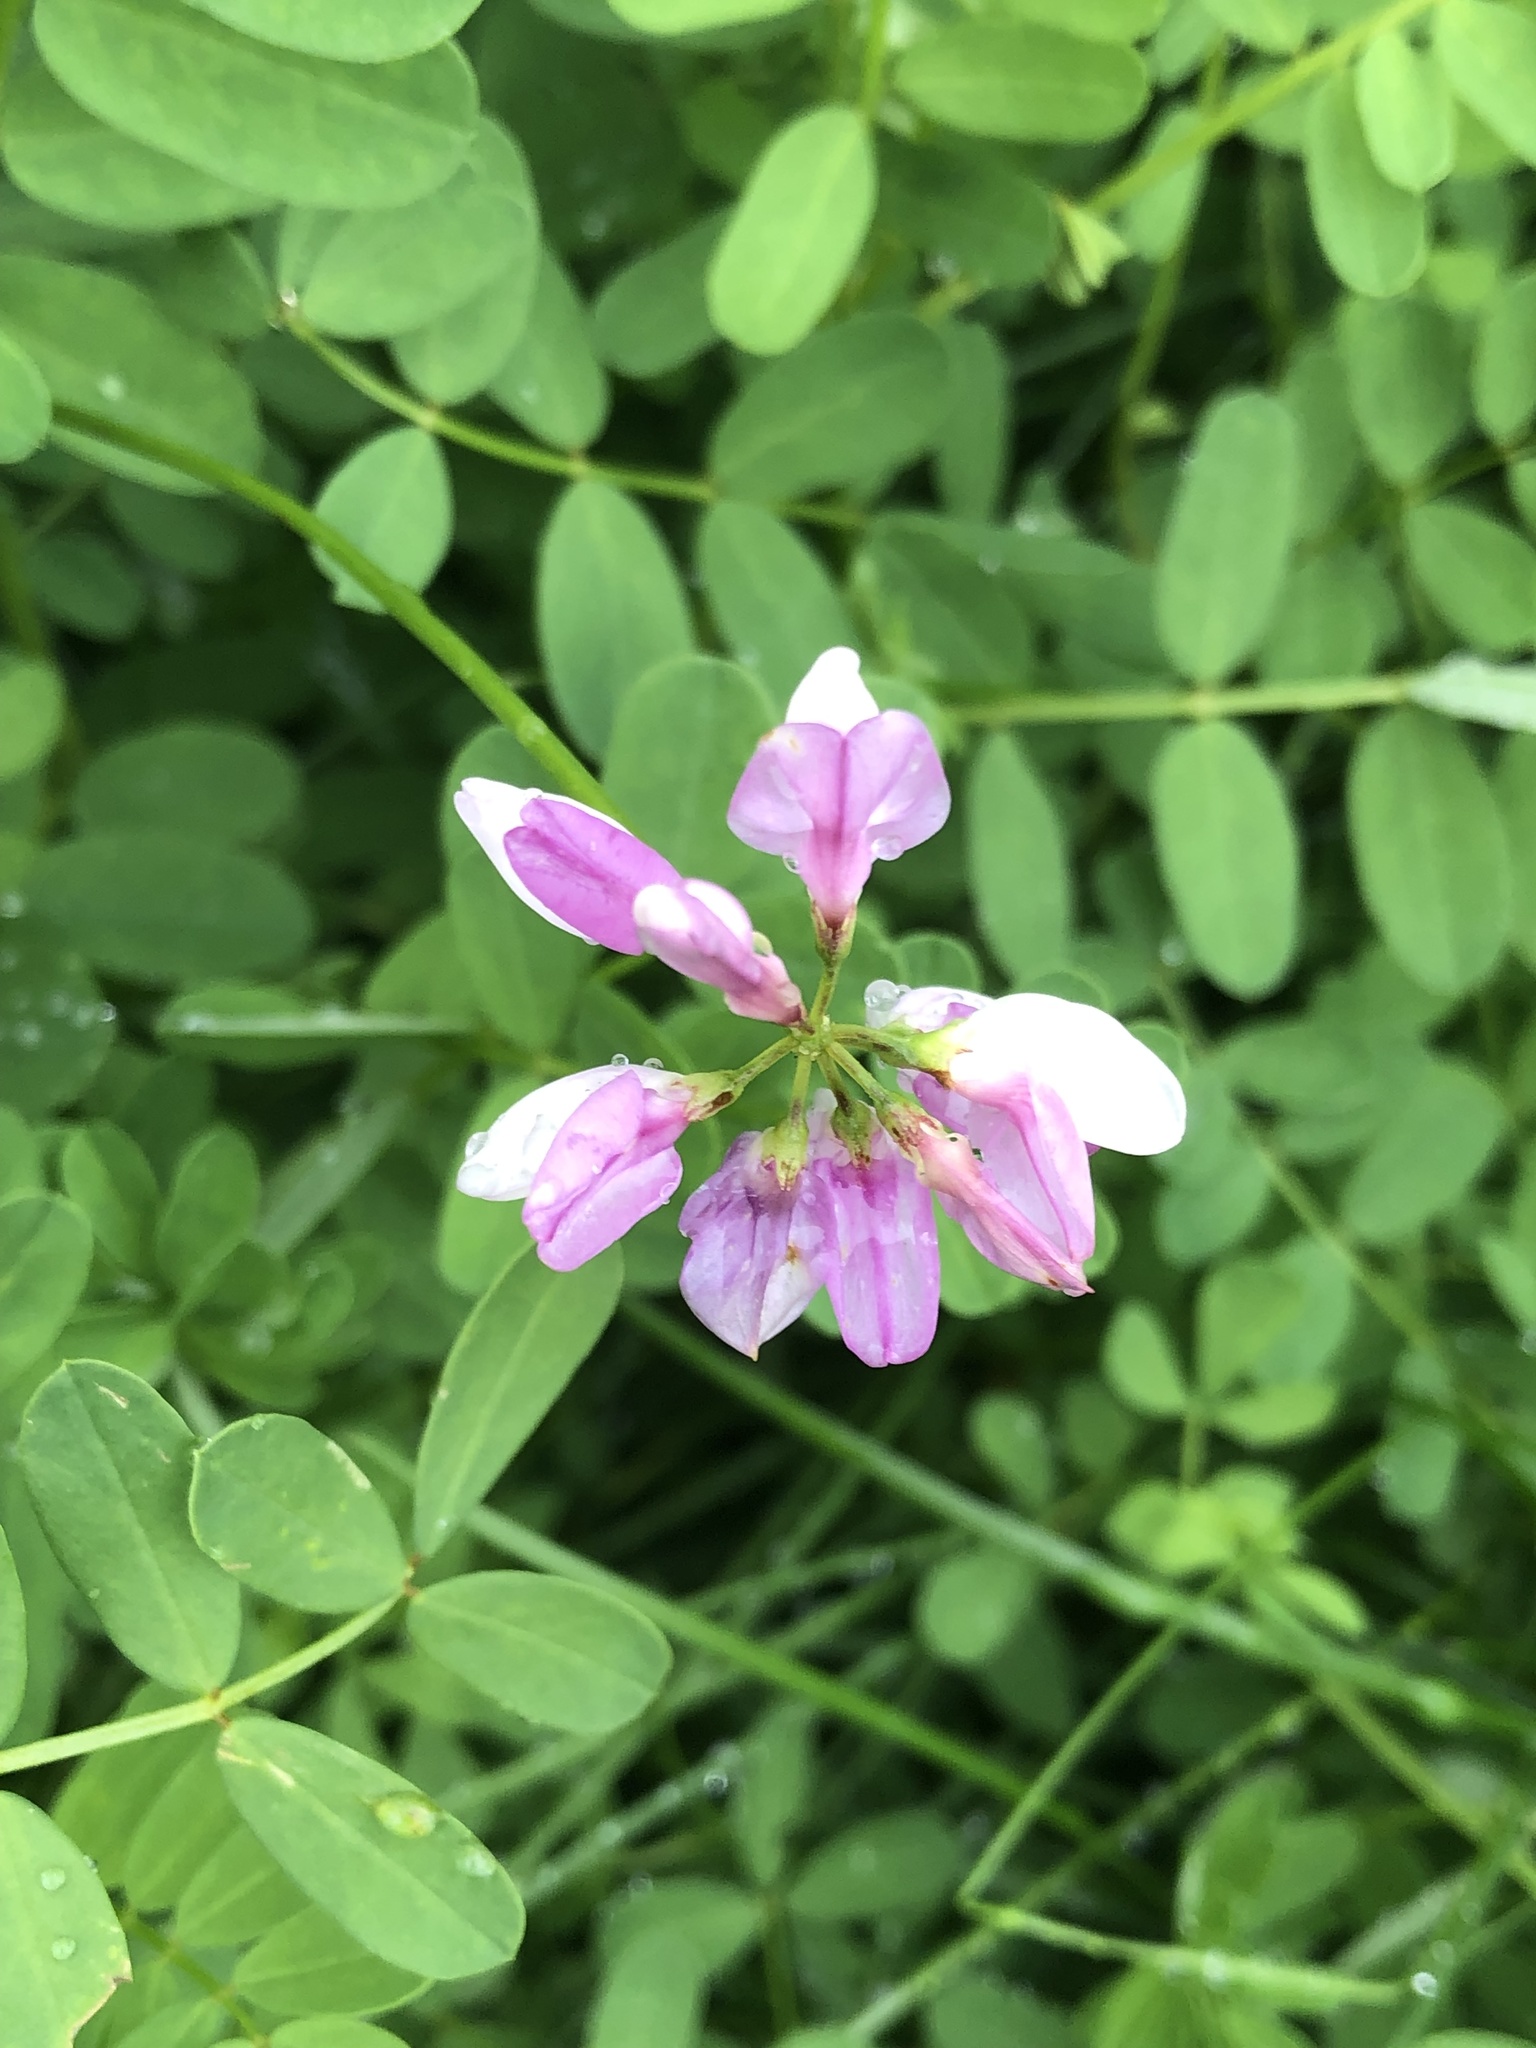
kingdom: Plantae
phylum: Tracheophyta
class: Magnoliopsida
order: Fabales
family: Fabaceae
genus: Coronilla
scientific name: Coronilla varia
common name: Crownvetch
